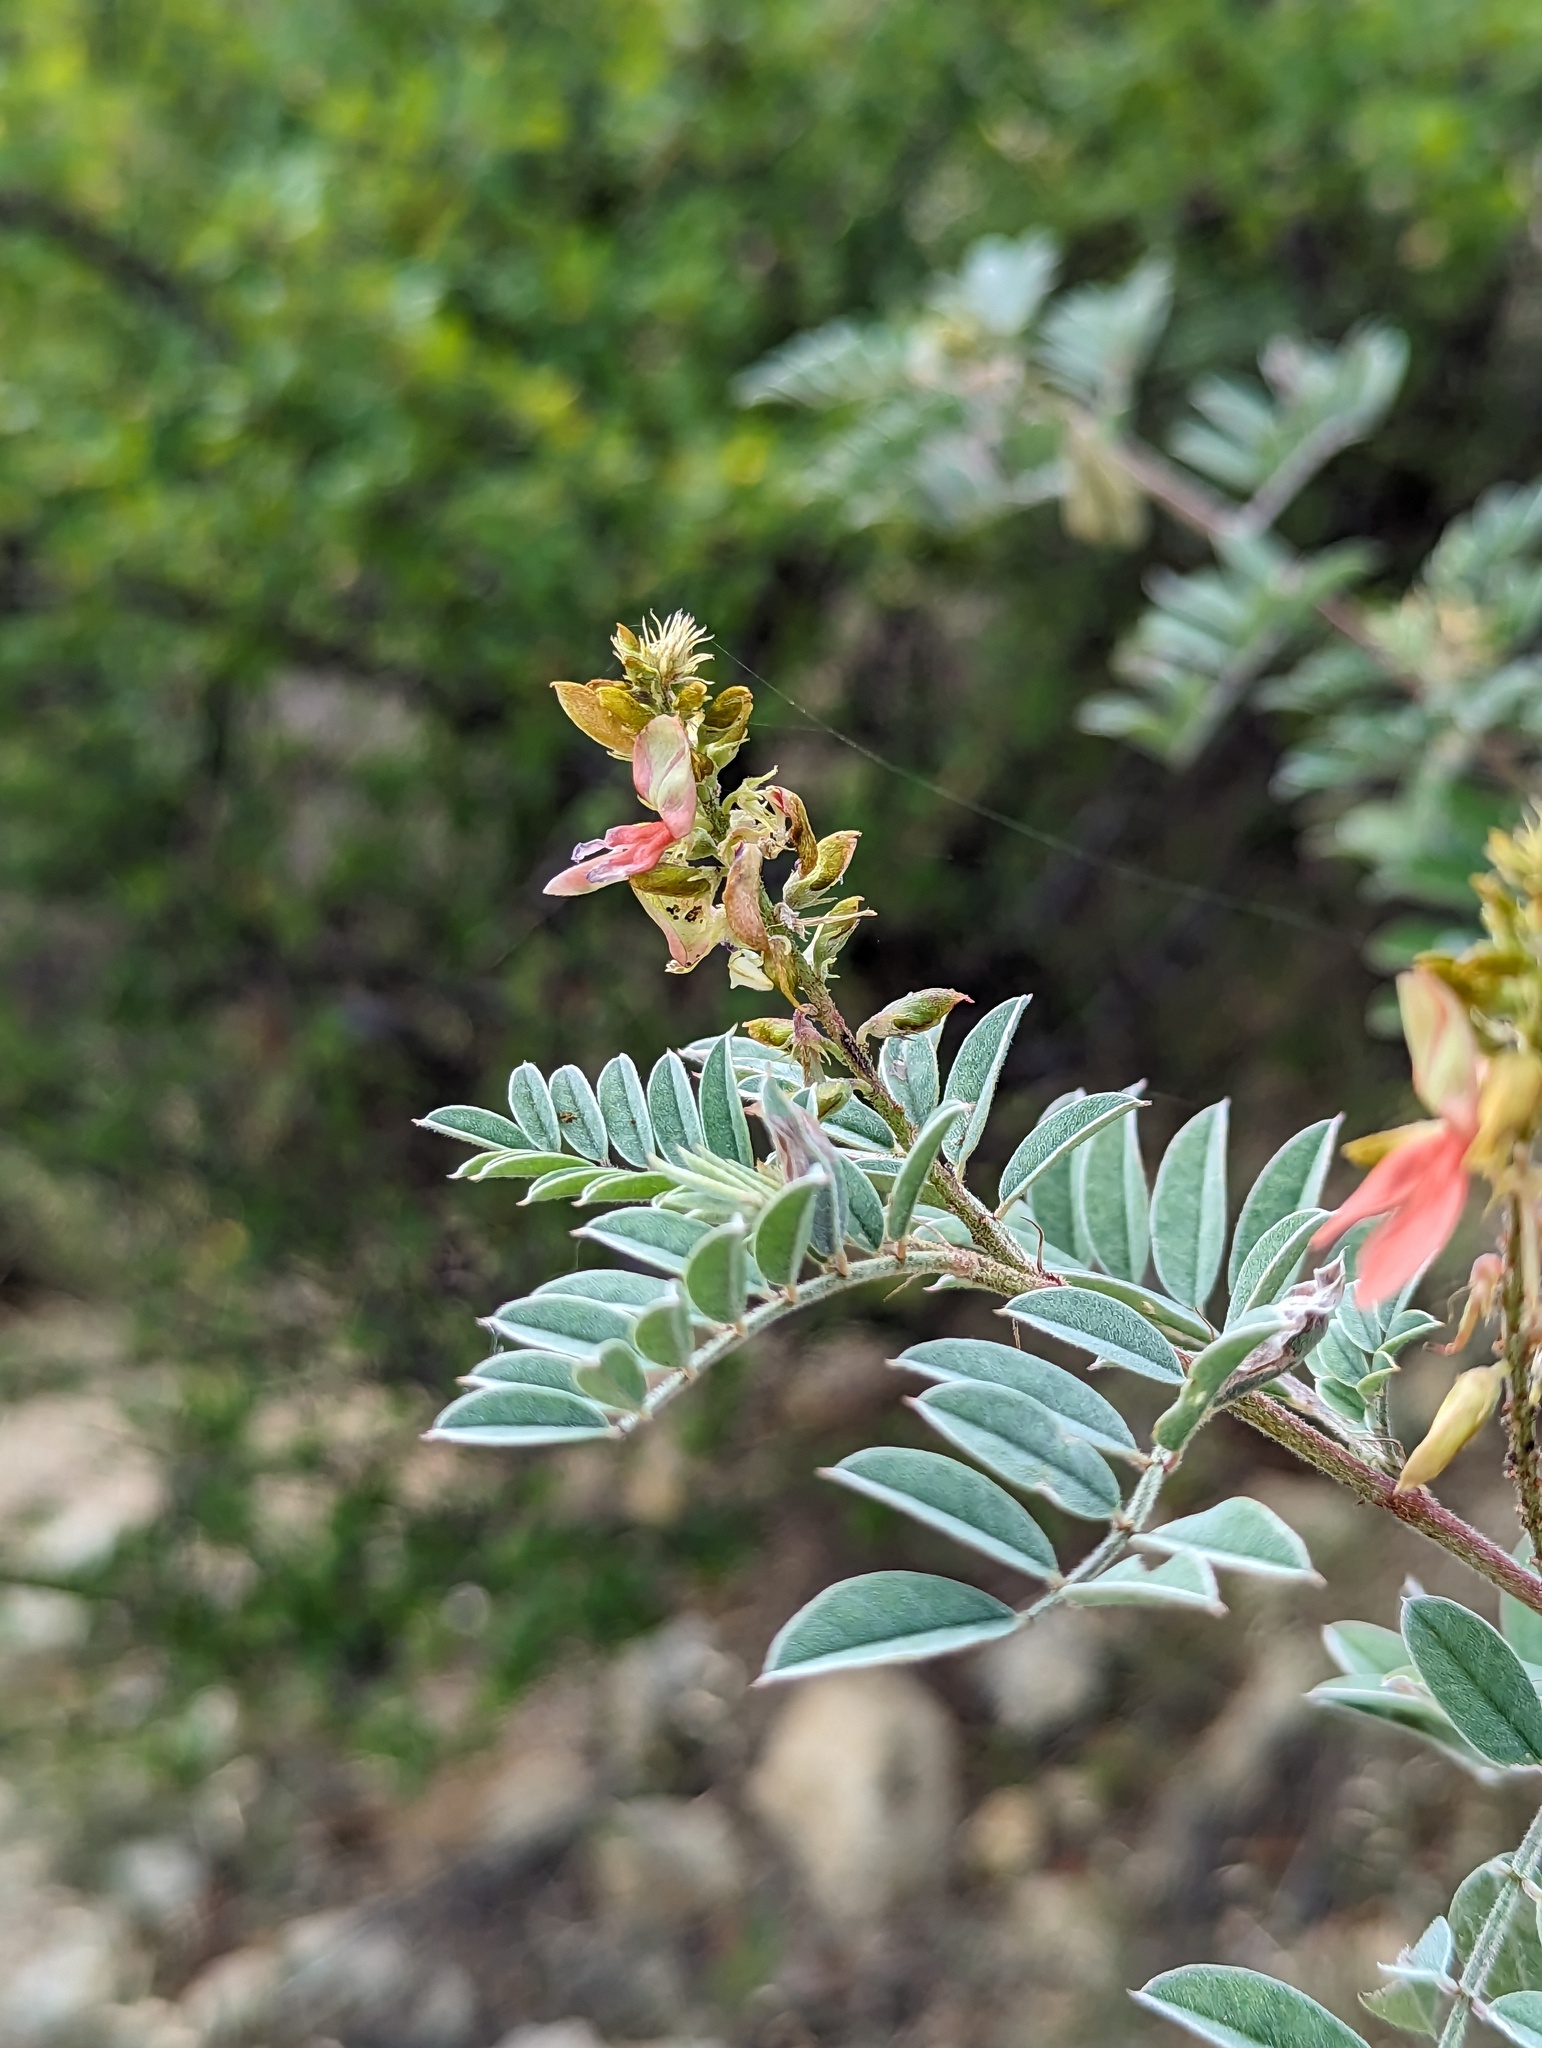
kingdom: Plantae
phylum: Tracheophyta
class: Magnoliopsida
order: Fabales
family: Fabaceae
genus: Indigofera
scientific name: Indigofera fruticosa
